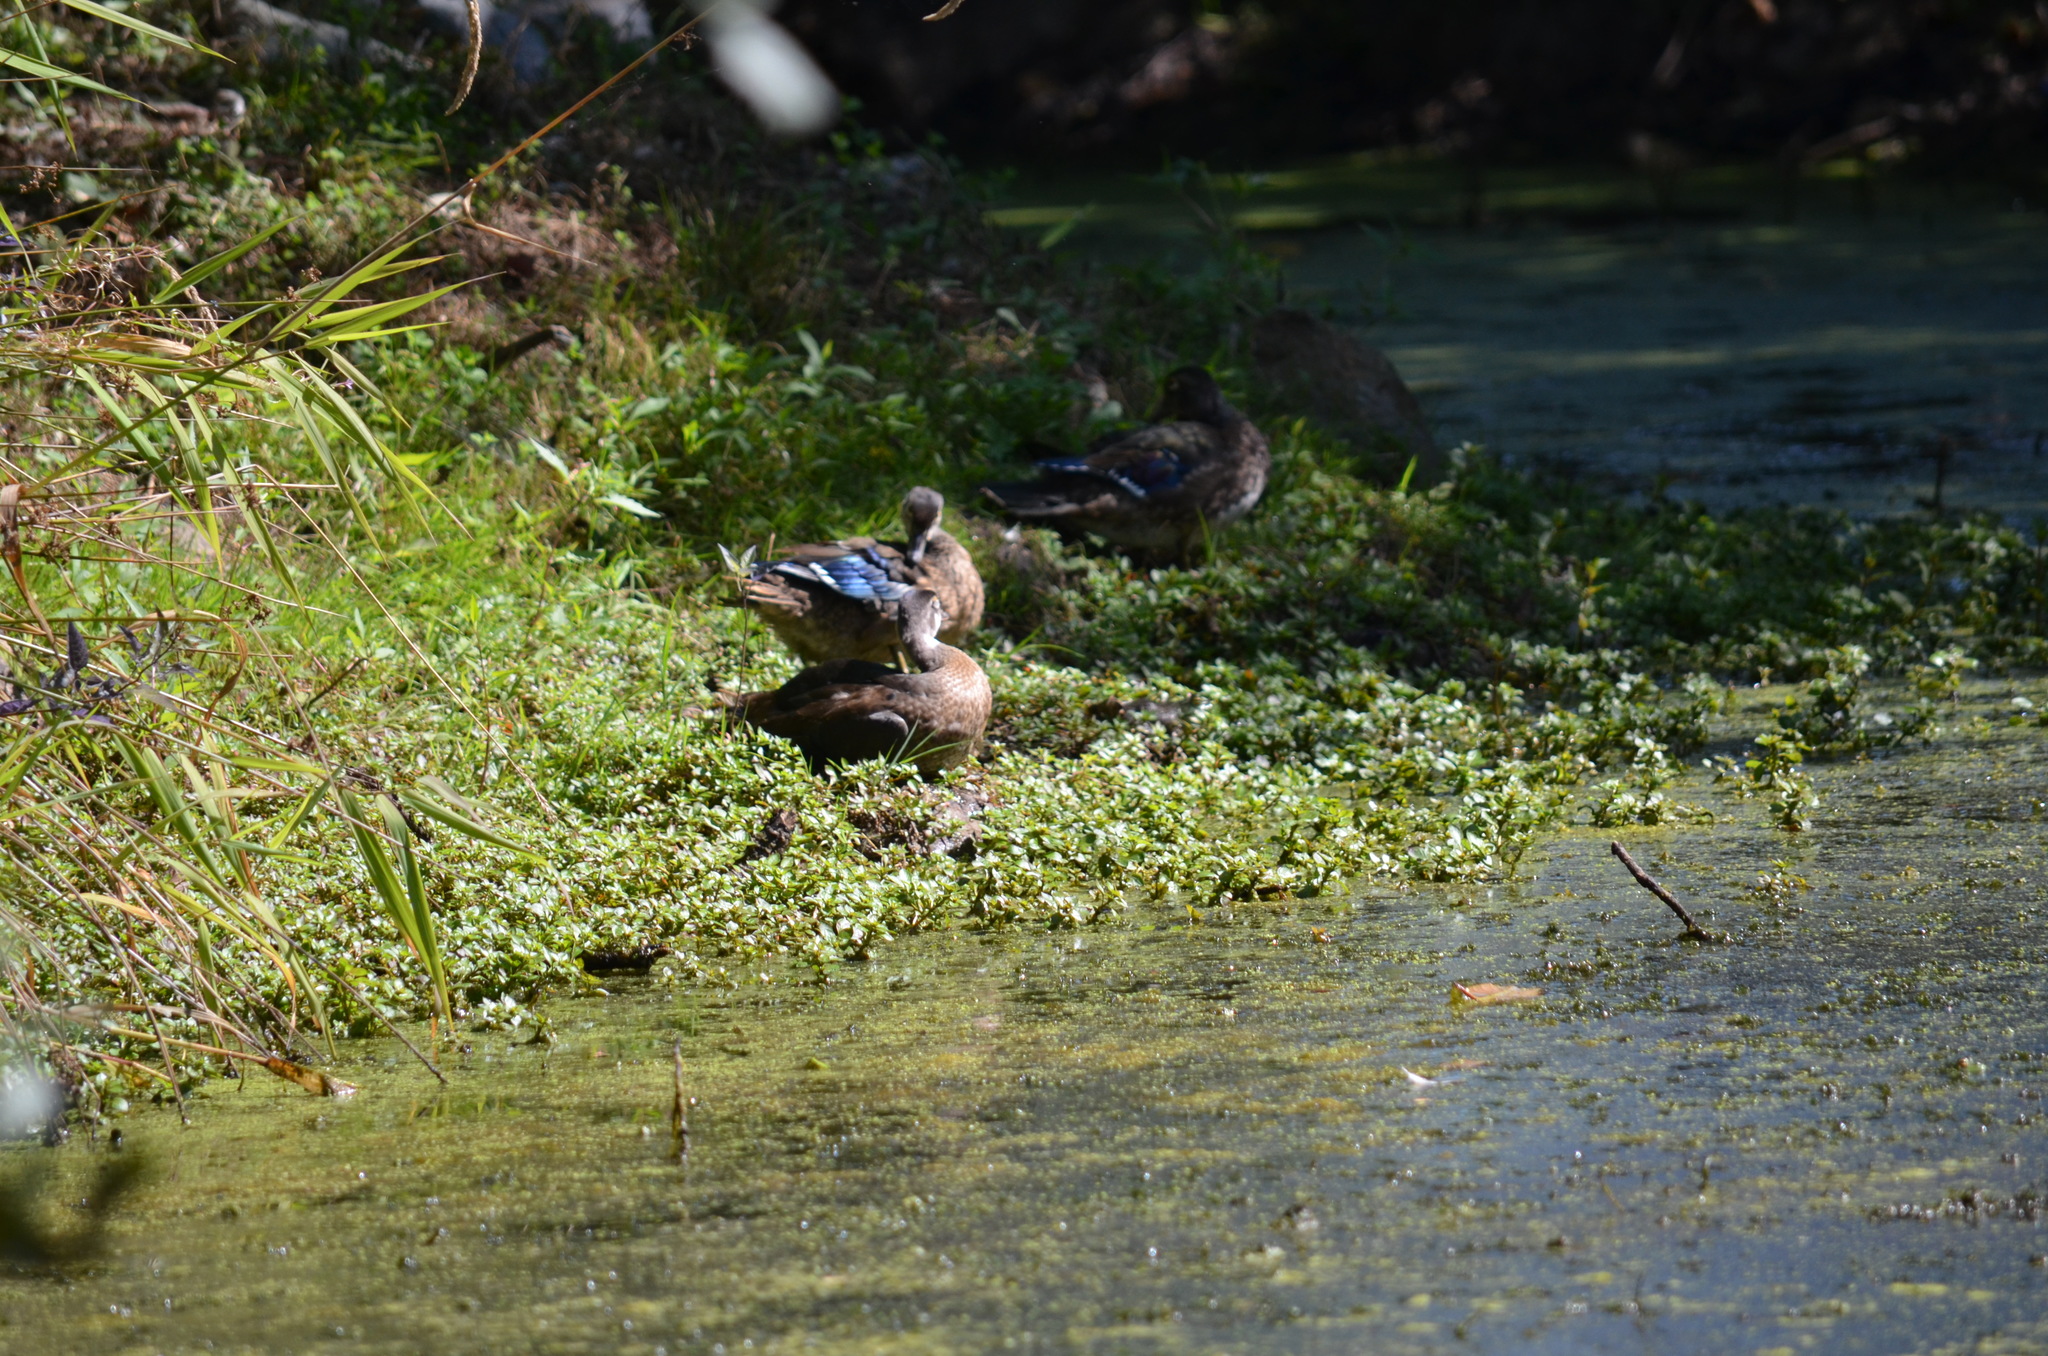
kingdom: Animalia
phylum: Chordata
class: Aves
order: Anseriformes
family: Anatidae
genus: Aix
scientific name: Aix sponsa
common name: Wood duck
